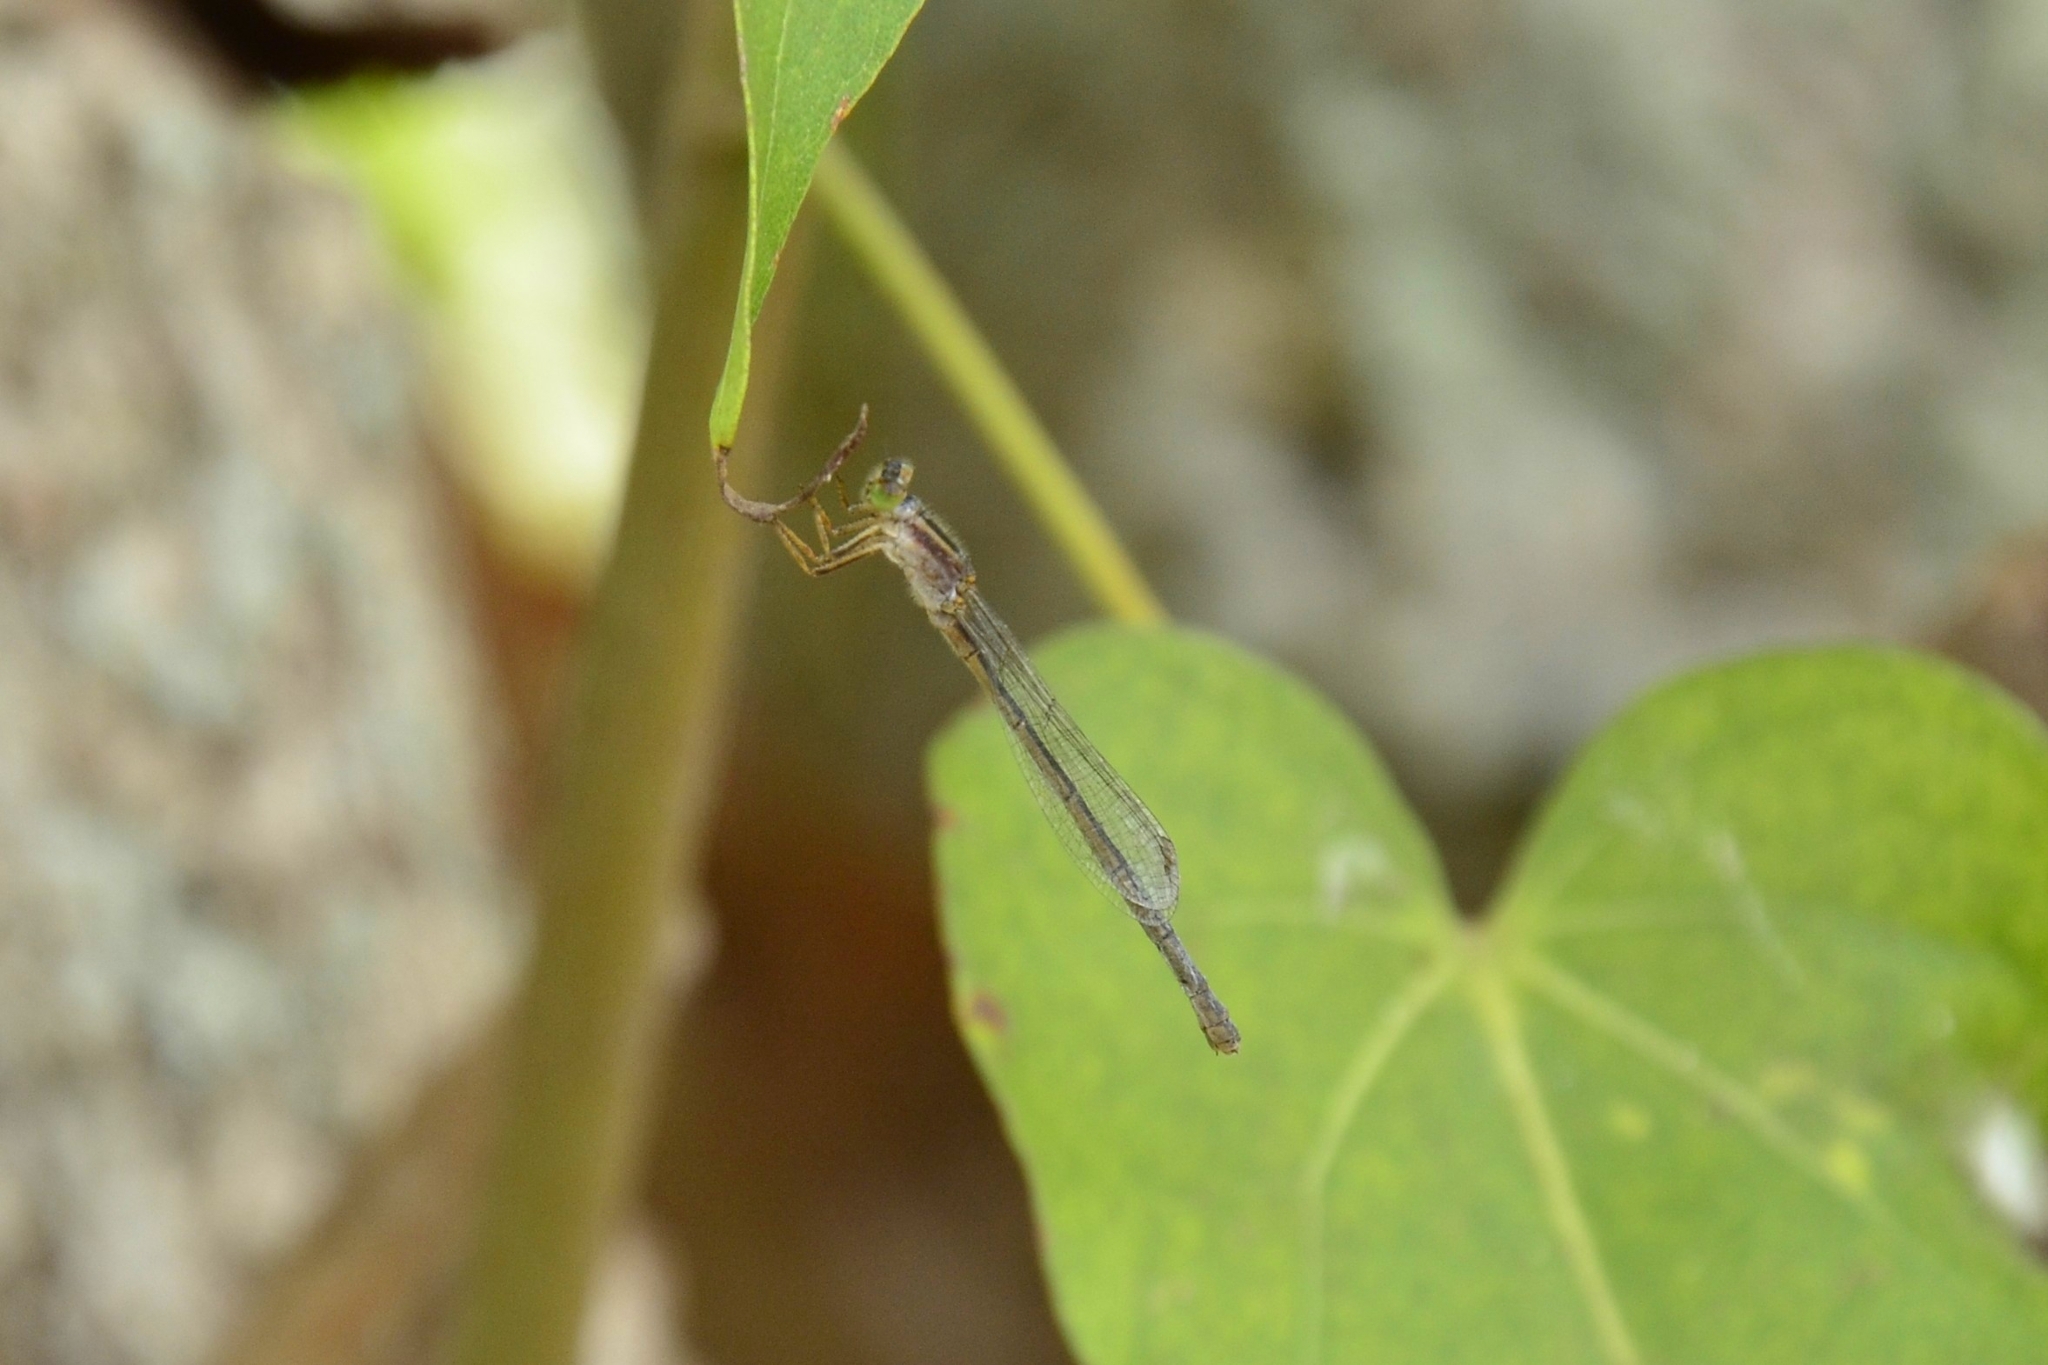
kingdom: Animalia
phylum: Arthropoda
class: Insecta
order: Odonata
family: Coenagrionidae
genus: Ischnura
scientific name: Ischnura senegalensis
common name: Tropical bluetail
